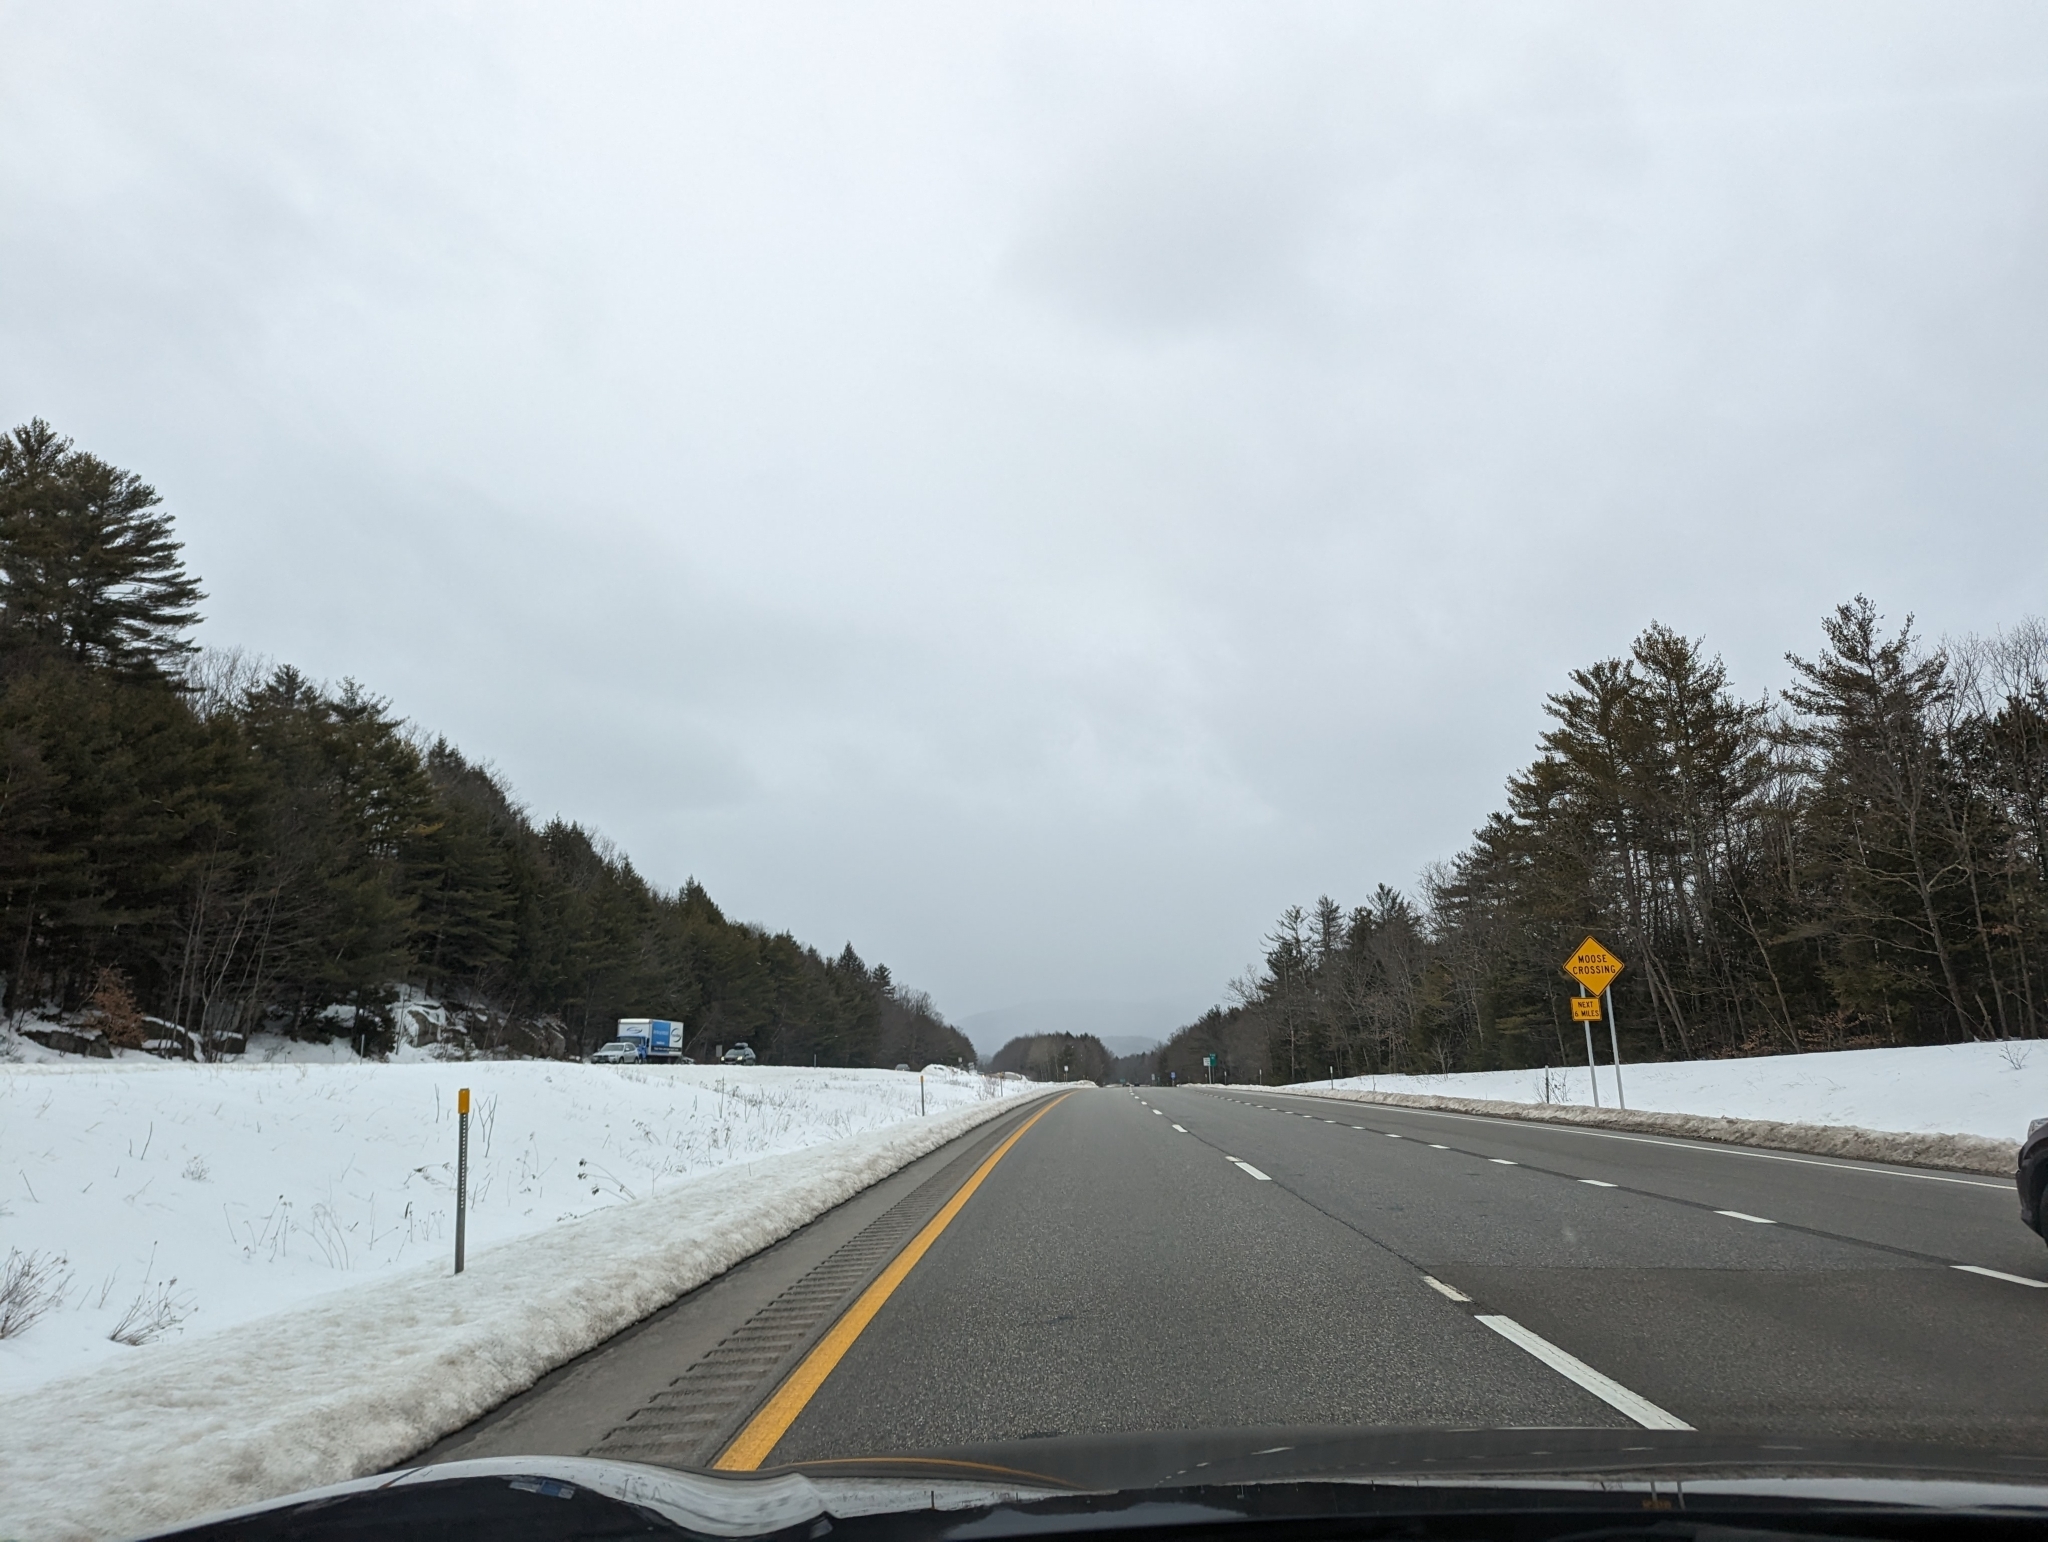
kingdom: Plantae
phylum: Tracheophyta
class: Pinopsida
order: Pinales
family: Pinaceae
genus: Pinus
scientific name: Pinus strobus
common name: Weymouth pine
